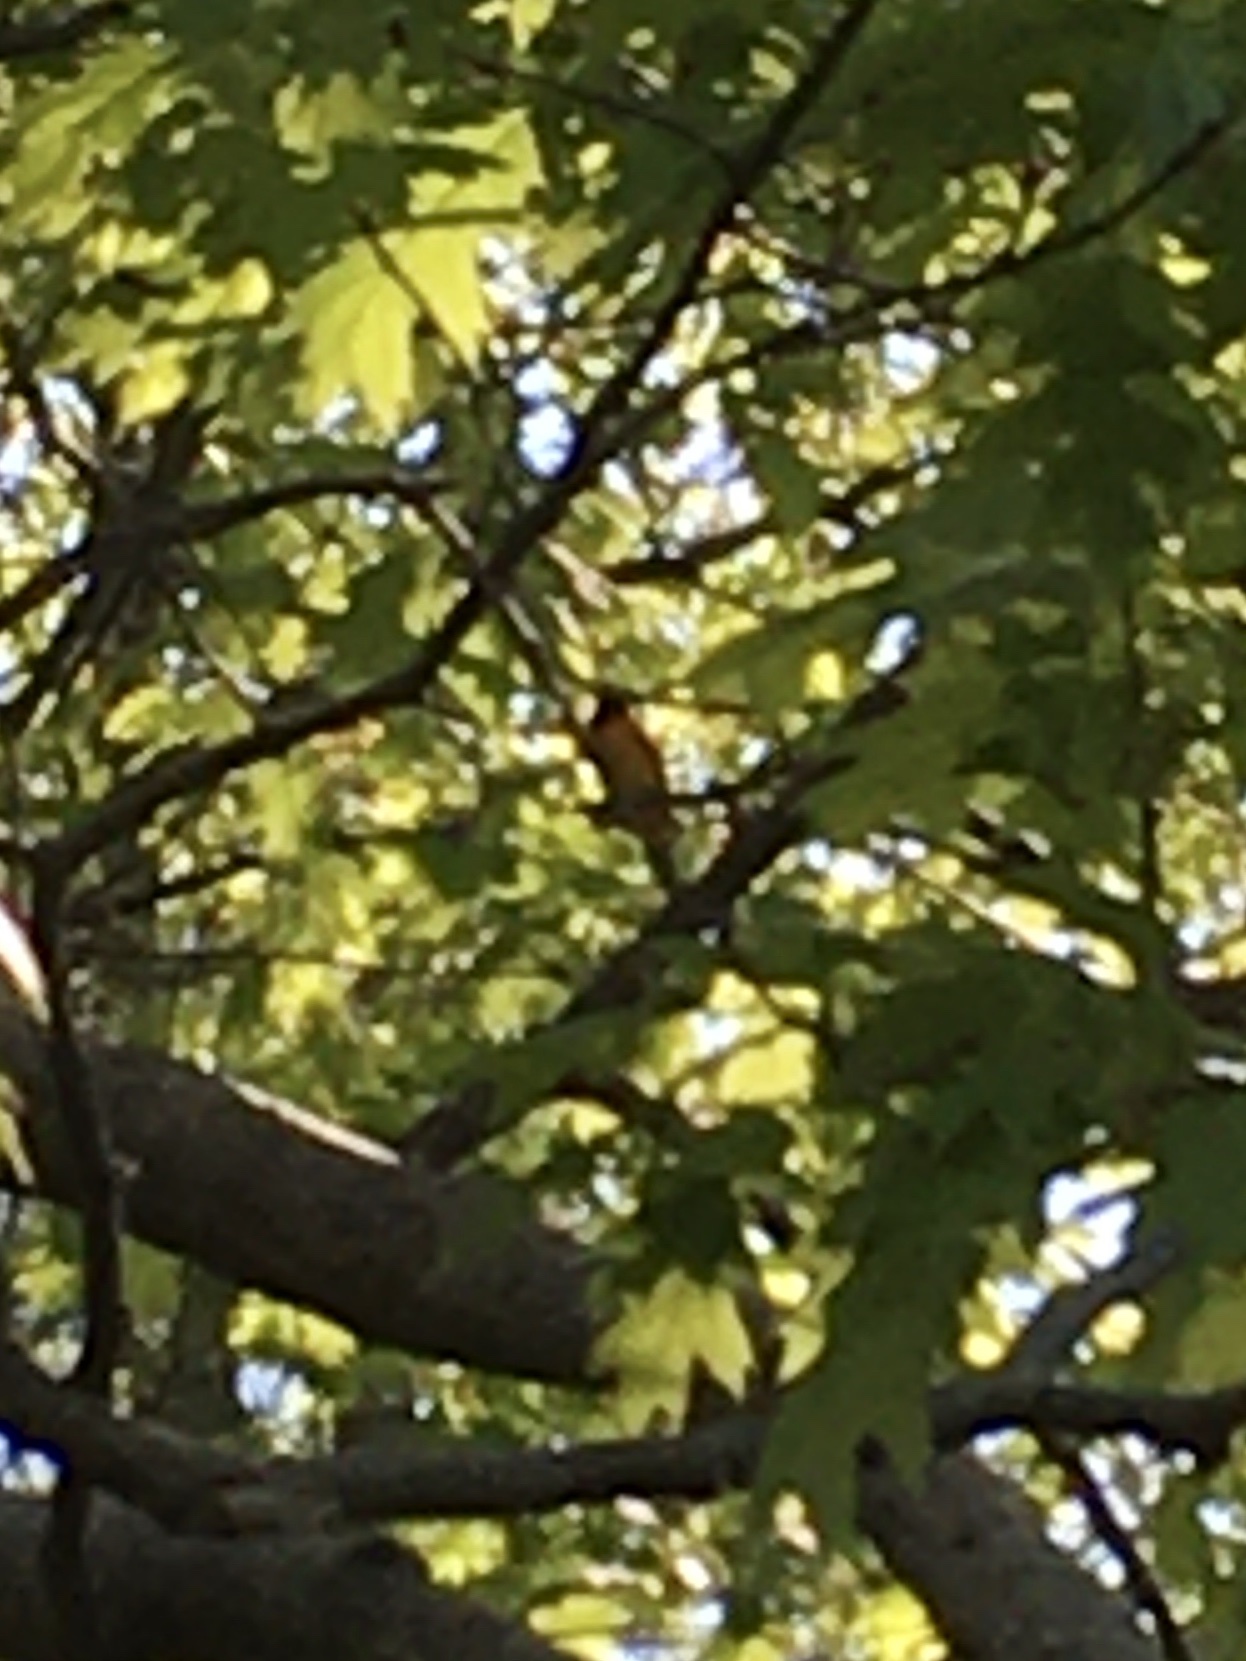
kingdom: Animalia
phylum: Chordata
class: Aves
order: Passeriformes
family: Icteridae
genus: Icterus
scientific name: Icterus galbula
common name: Baltimore oriole
